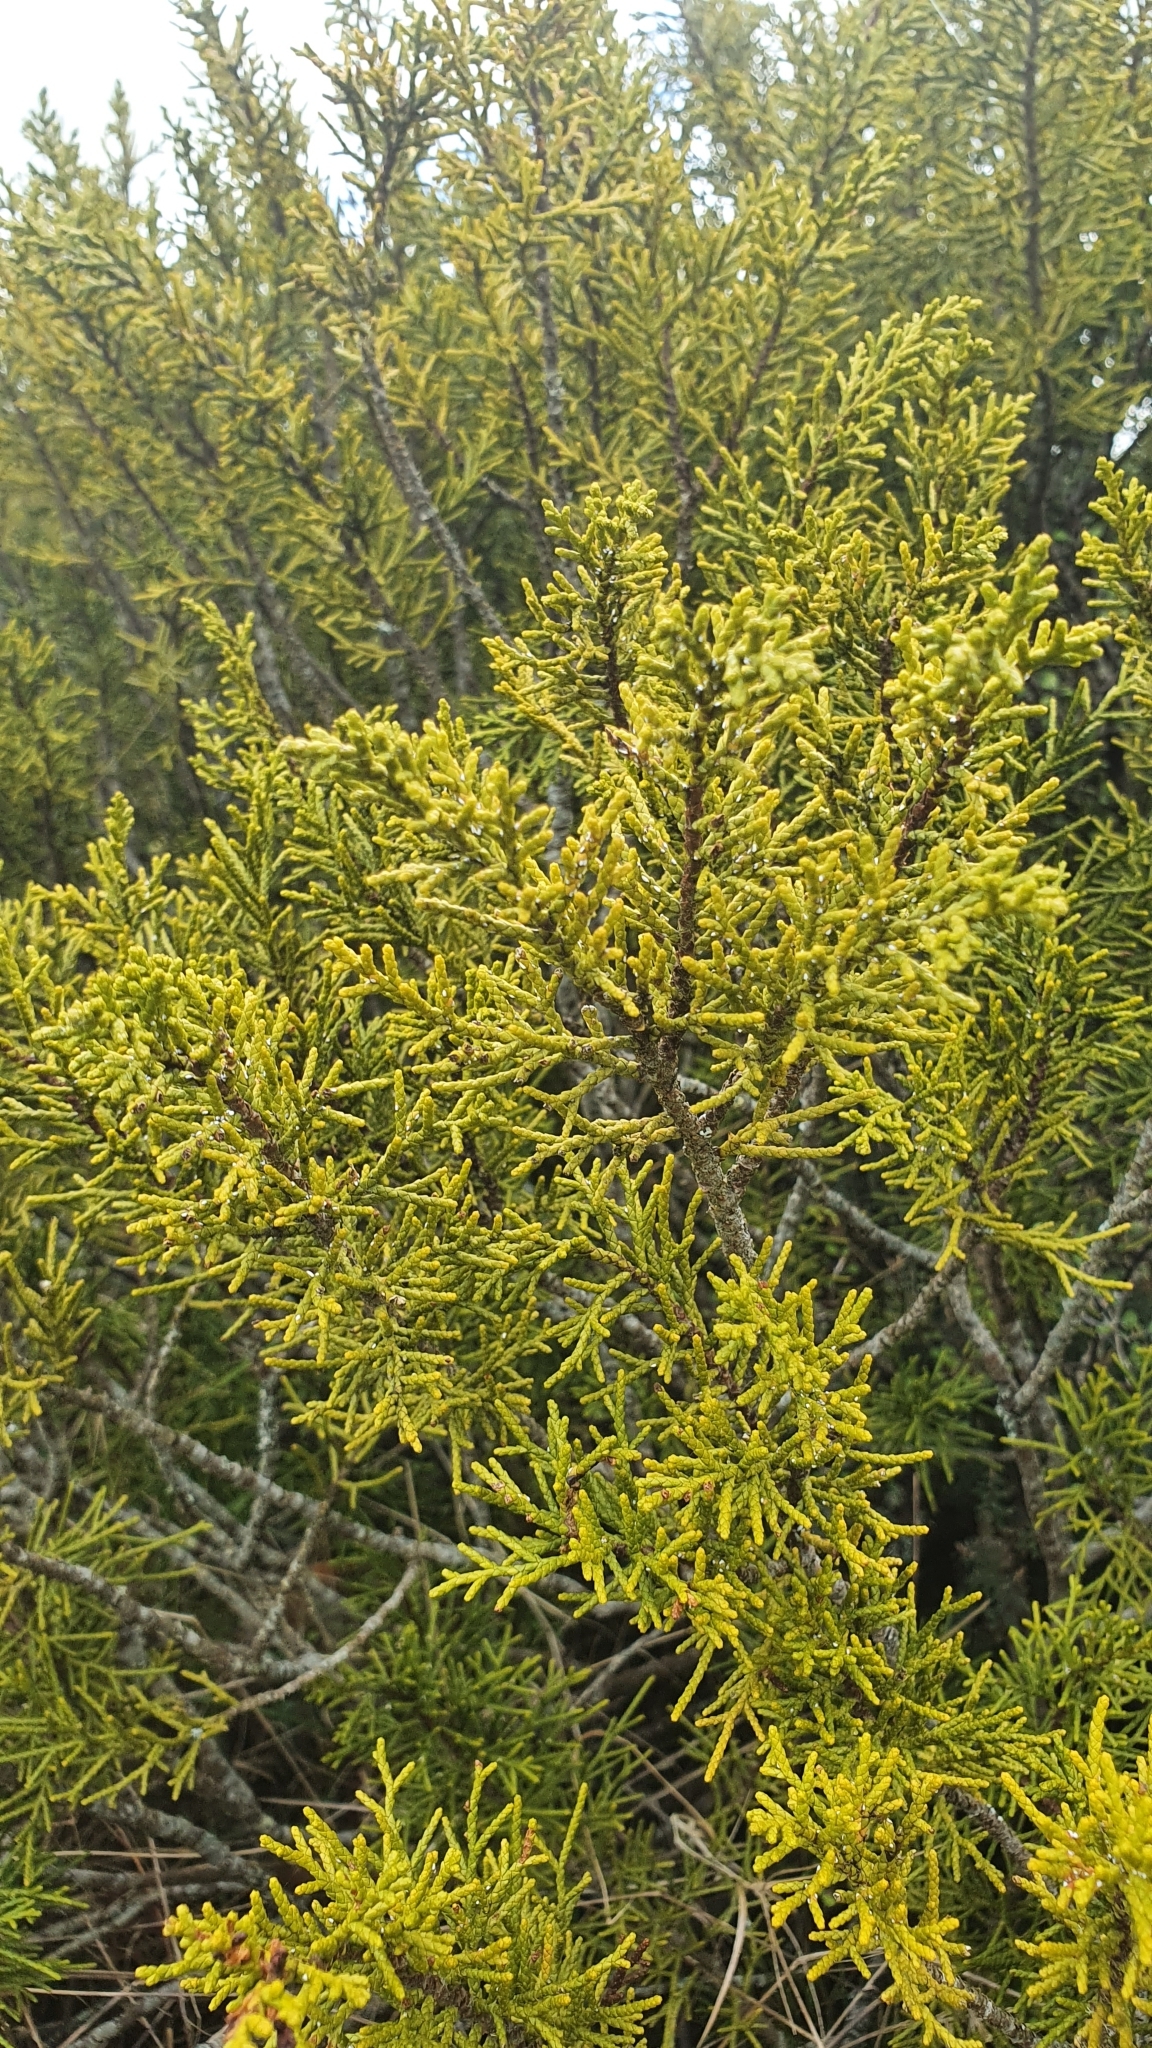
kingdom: Plantae
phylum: Tracheophyta
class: Pinopsida
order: Pinales
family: Podocarpaceae
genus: Halocarpus
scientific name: Halocarpus bidwillii
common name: Bog pine
